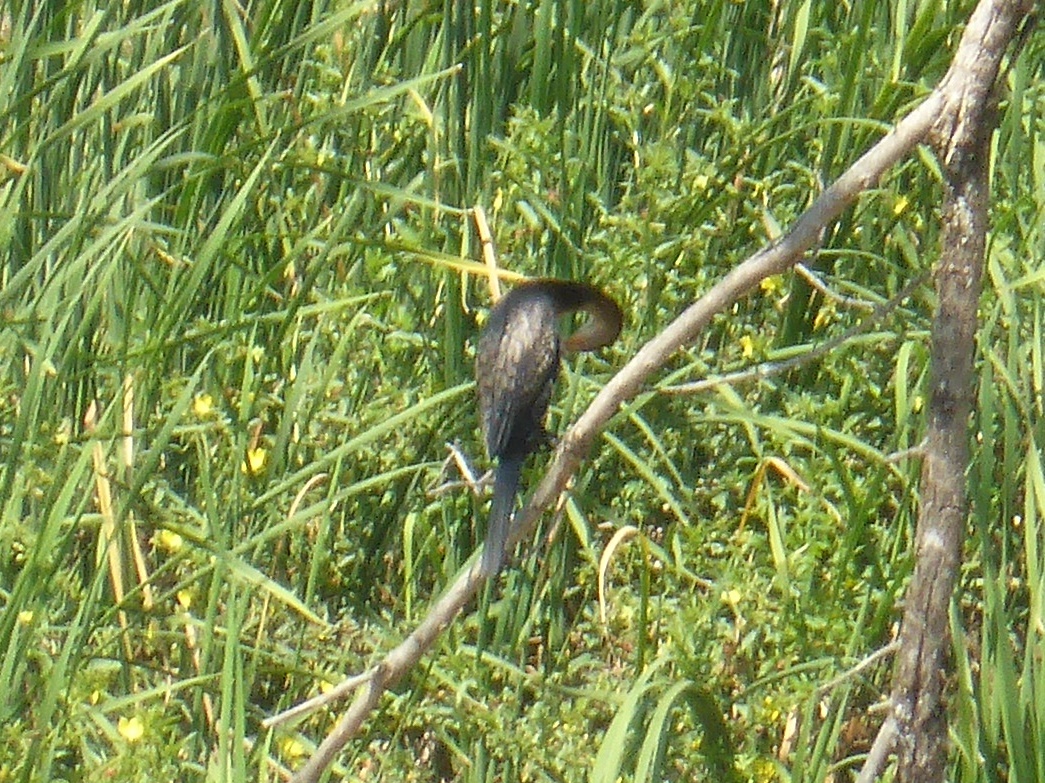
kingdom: Animalia
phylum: Chordata
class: Aves
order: Suliformes
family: Phalacrocoracidae
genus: Microcarbo
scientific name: Microcarbo africanus
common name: Long-tailed cormorant
